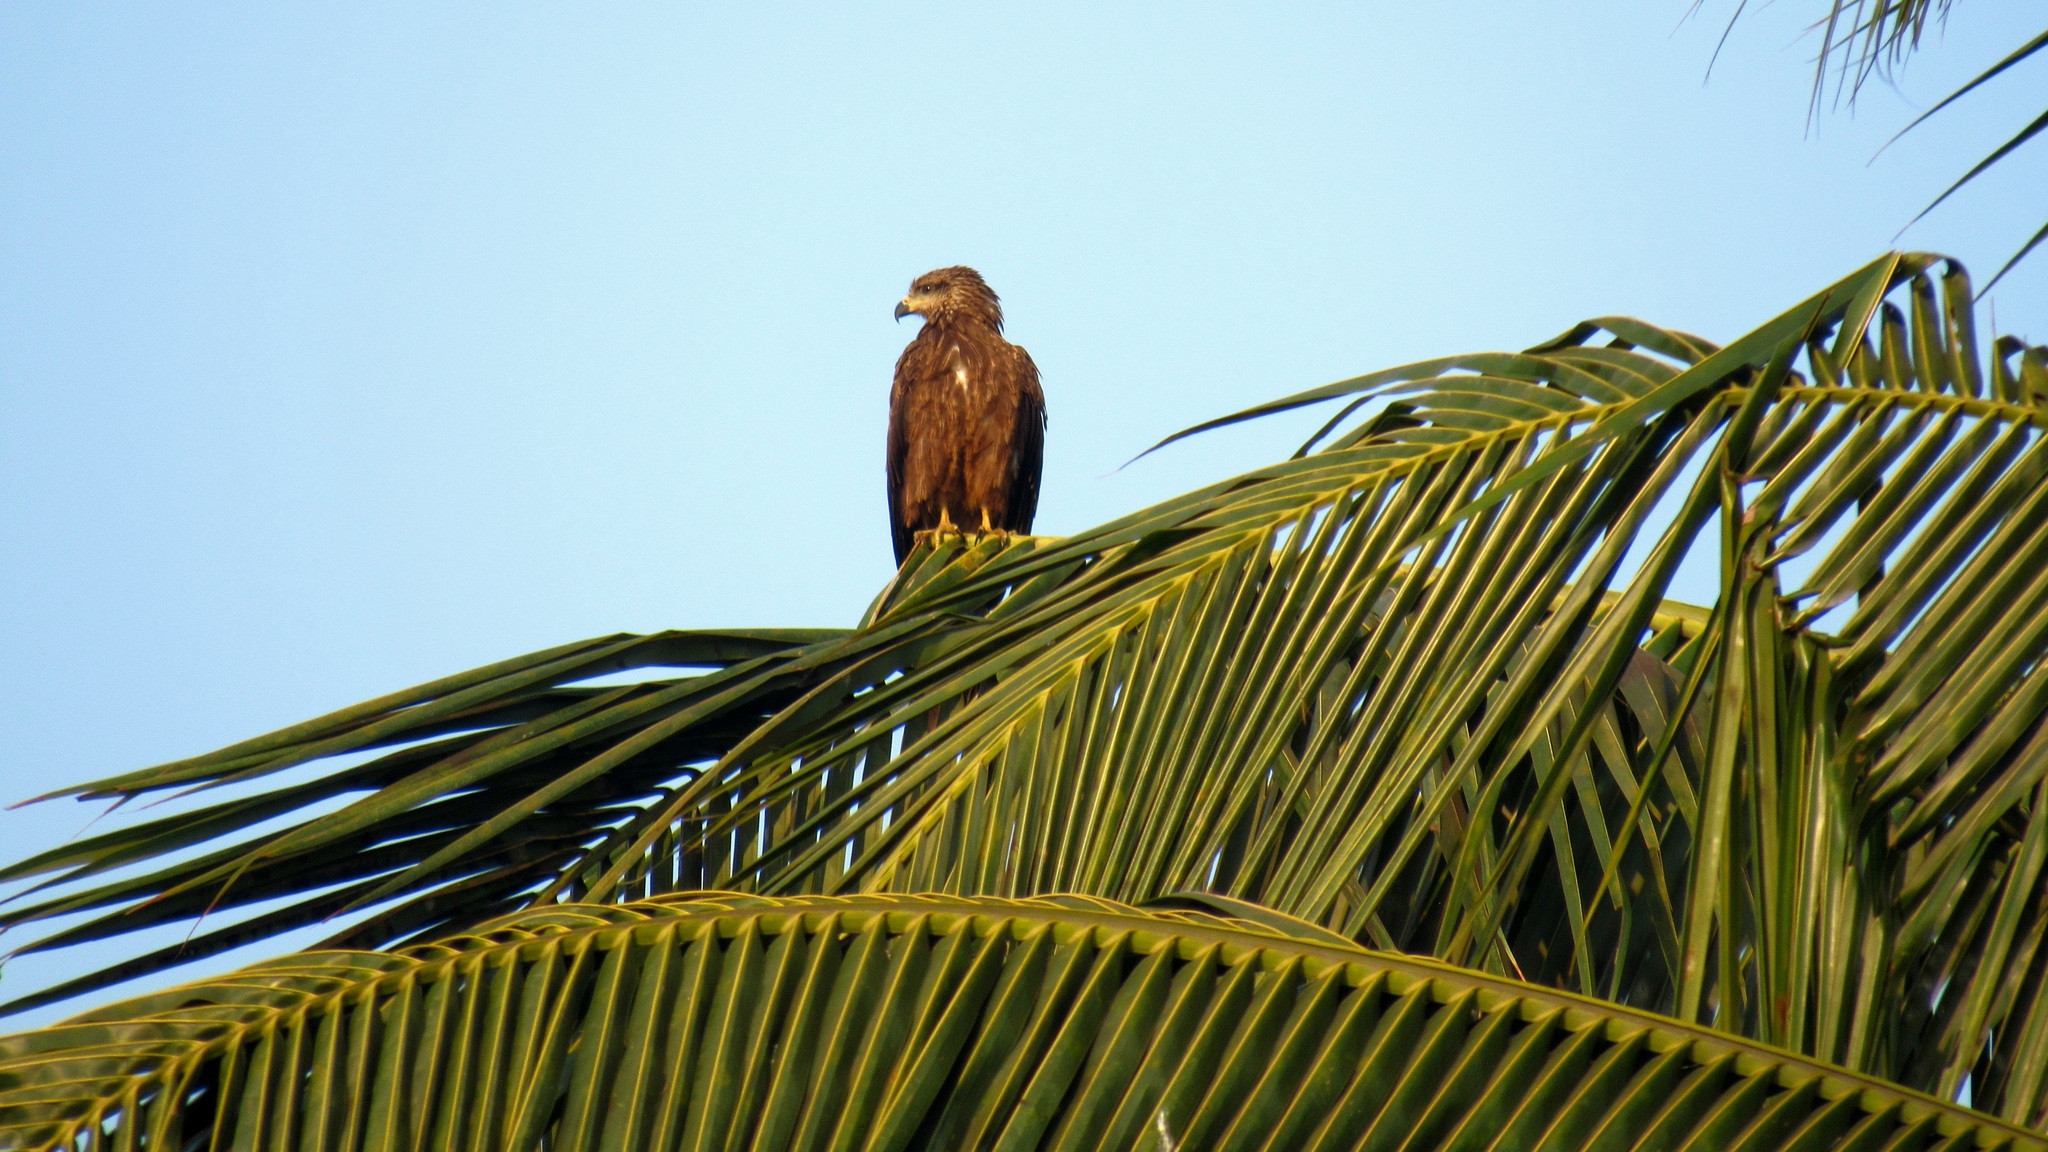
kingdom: Animalia
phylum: Chordata
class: Aves
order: Accipitriformes
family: Accipitridae
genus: Milvus
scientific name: Milvus migrans
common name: Black kite
